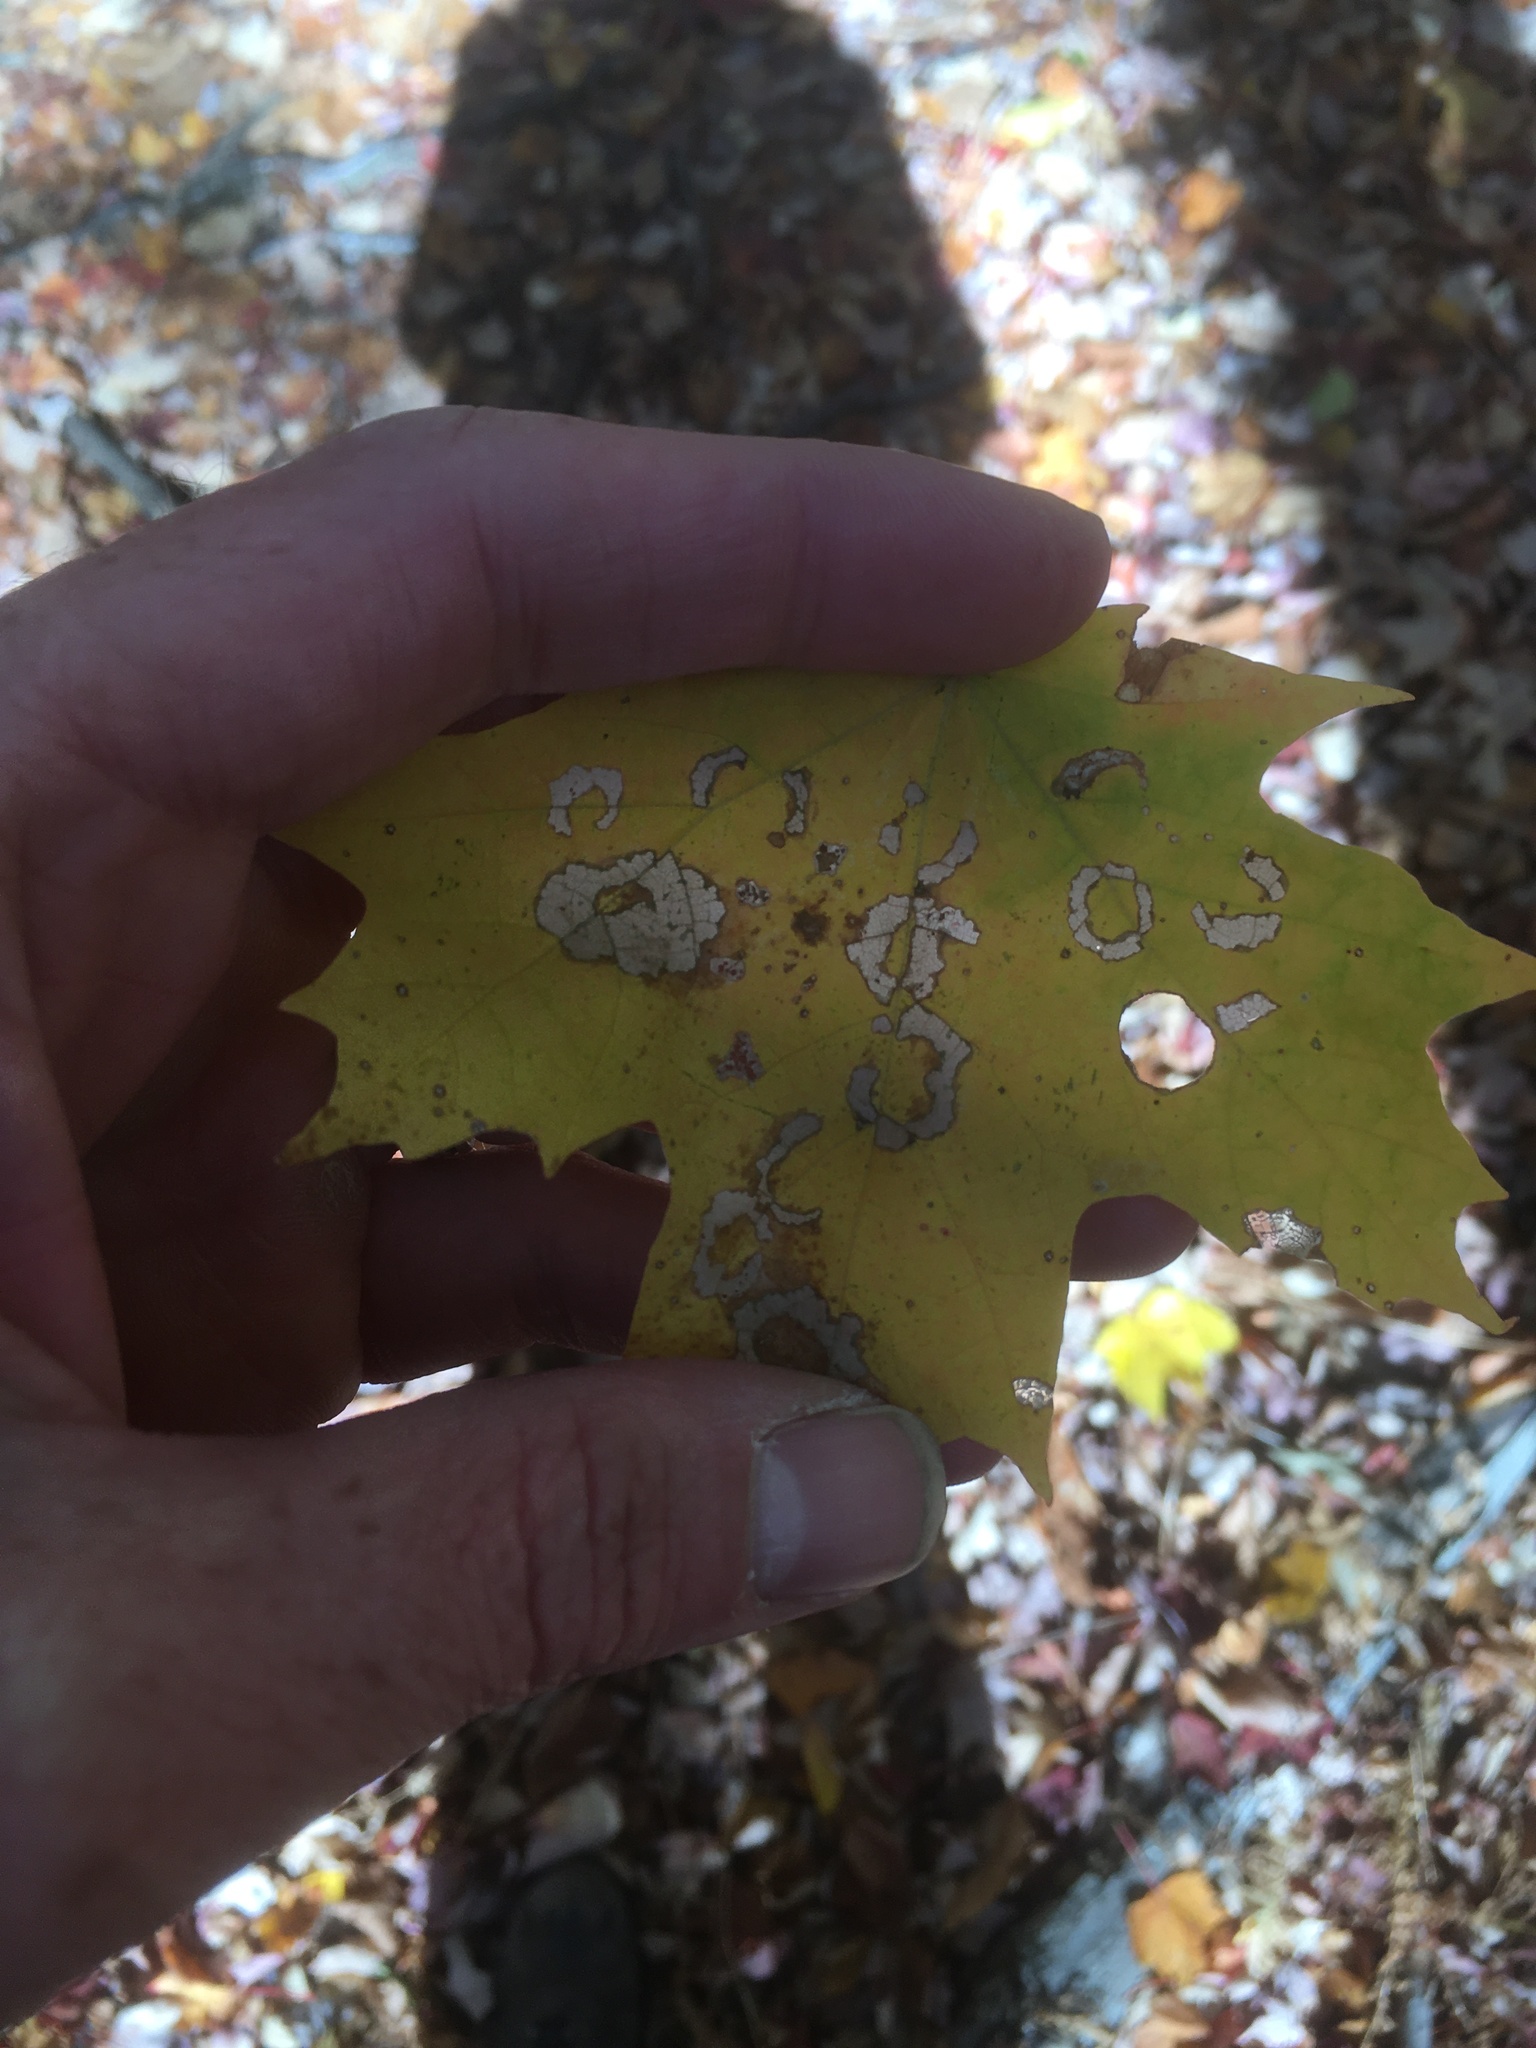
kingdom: Animalia
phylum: Arthropoda
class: Insecta
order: Lepidoptera
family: Incurvariidae
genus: Paraclemensia
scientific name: Paraclemensia acerifoliella
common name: Maple leafcutter
